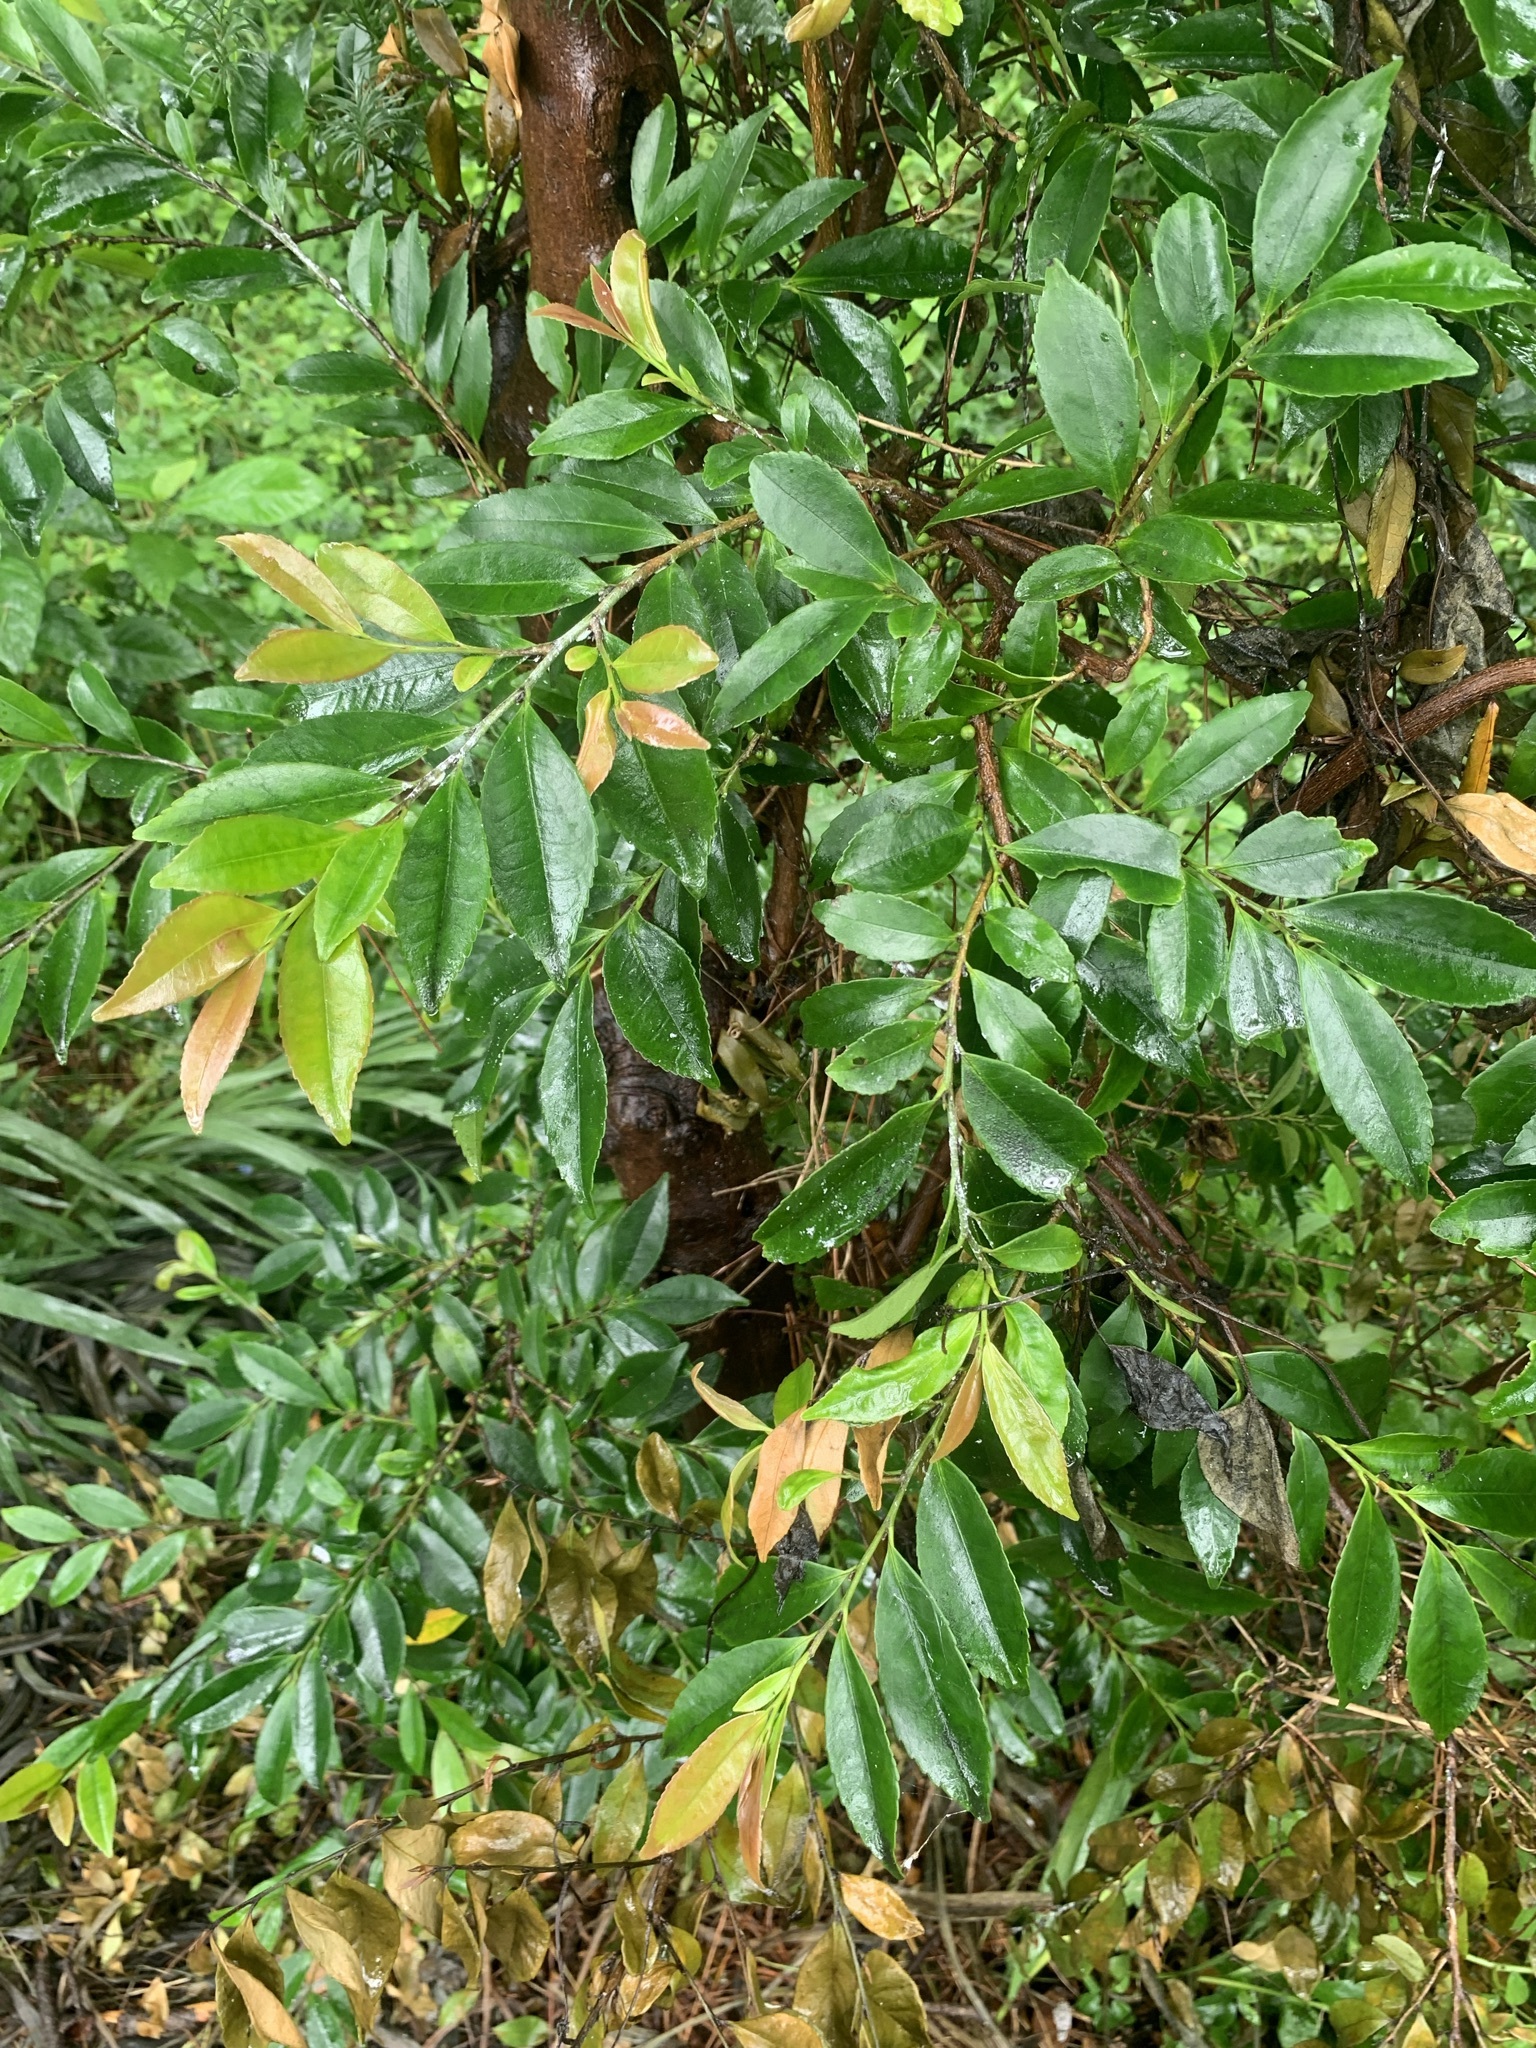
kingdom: Plantae
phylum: Tracheophyta
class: Magnoliopsida
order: Ericales
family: Pentaphylacaceae
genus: Eurya
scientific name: Eurya japonica
